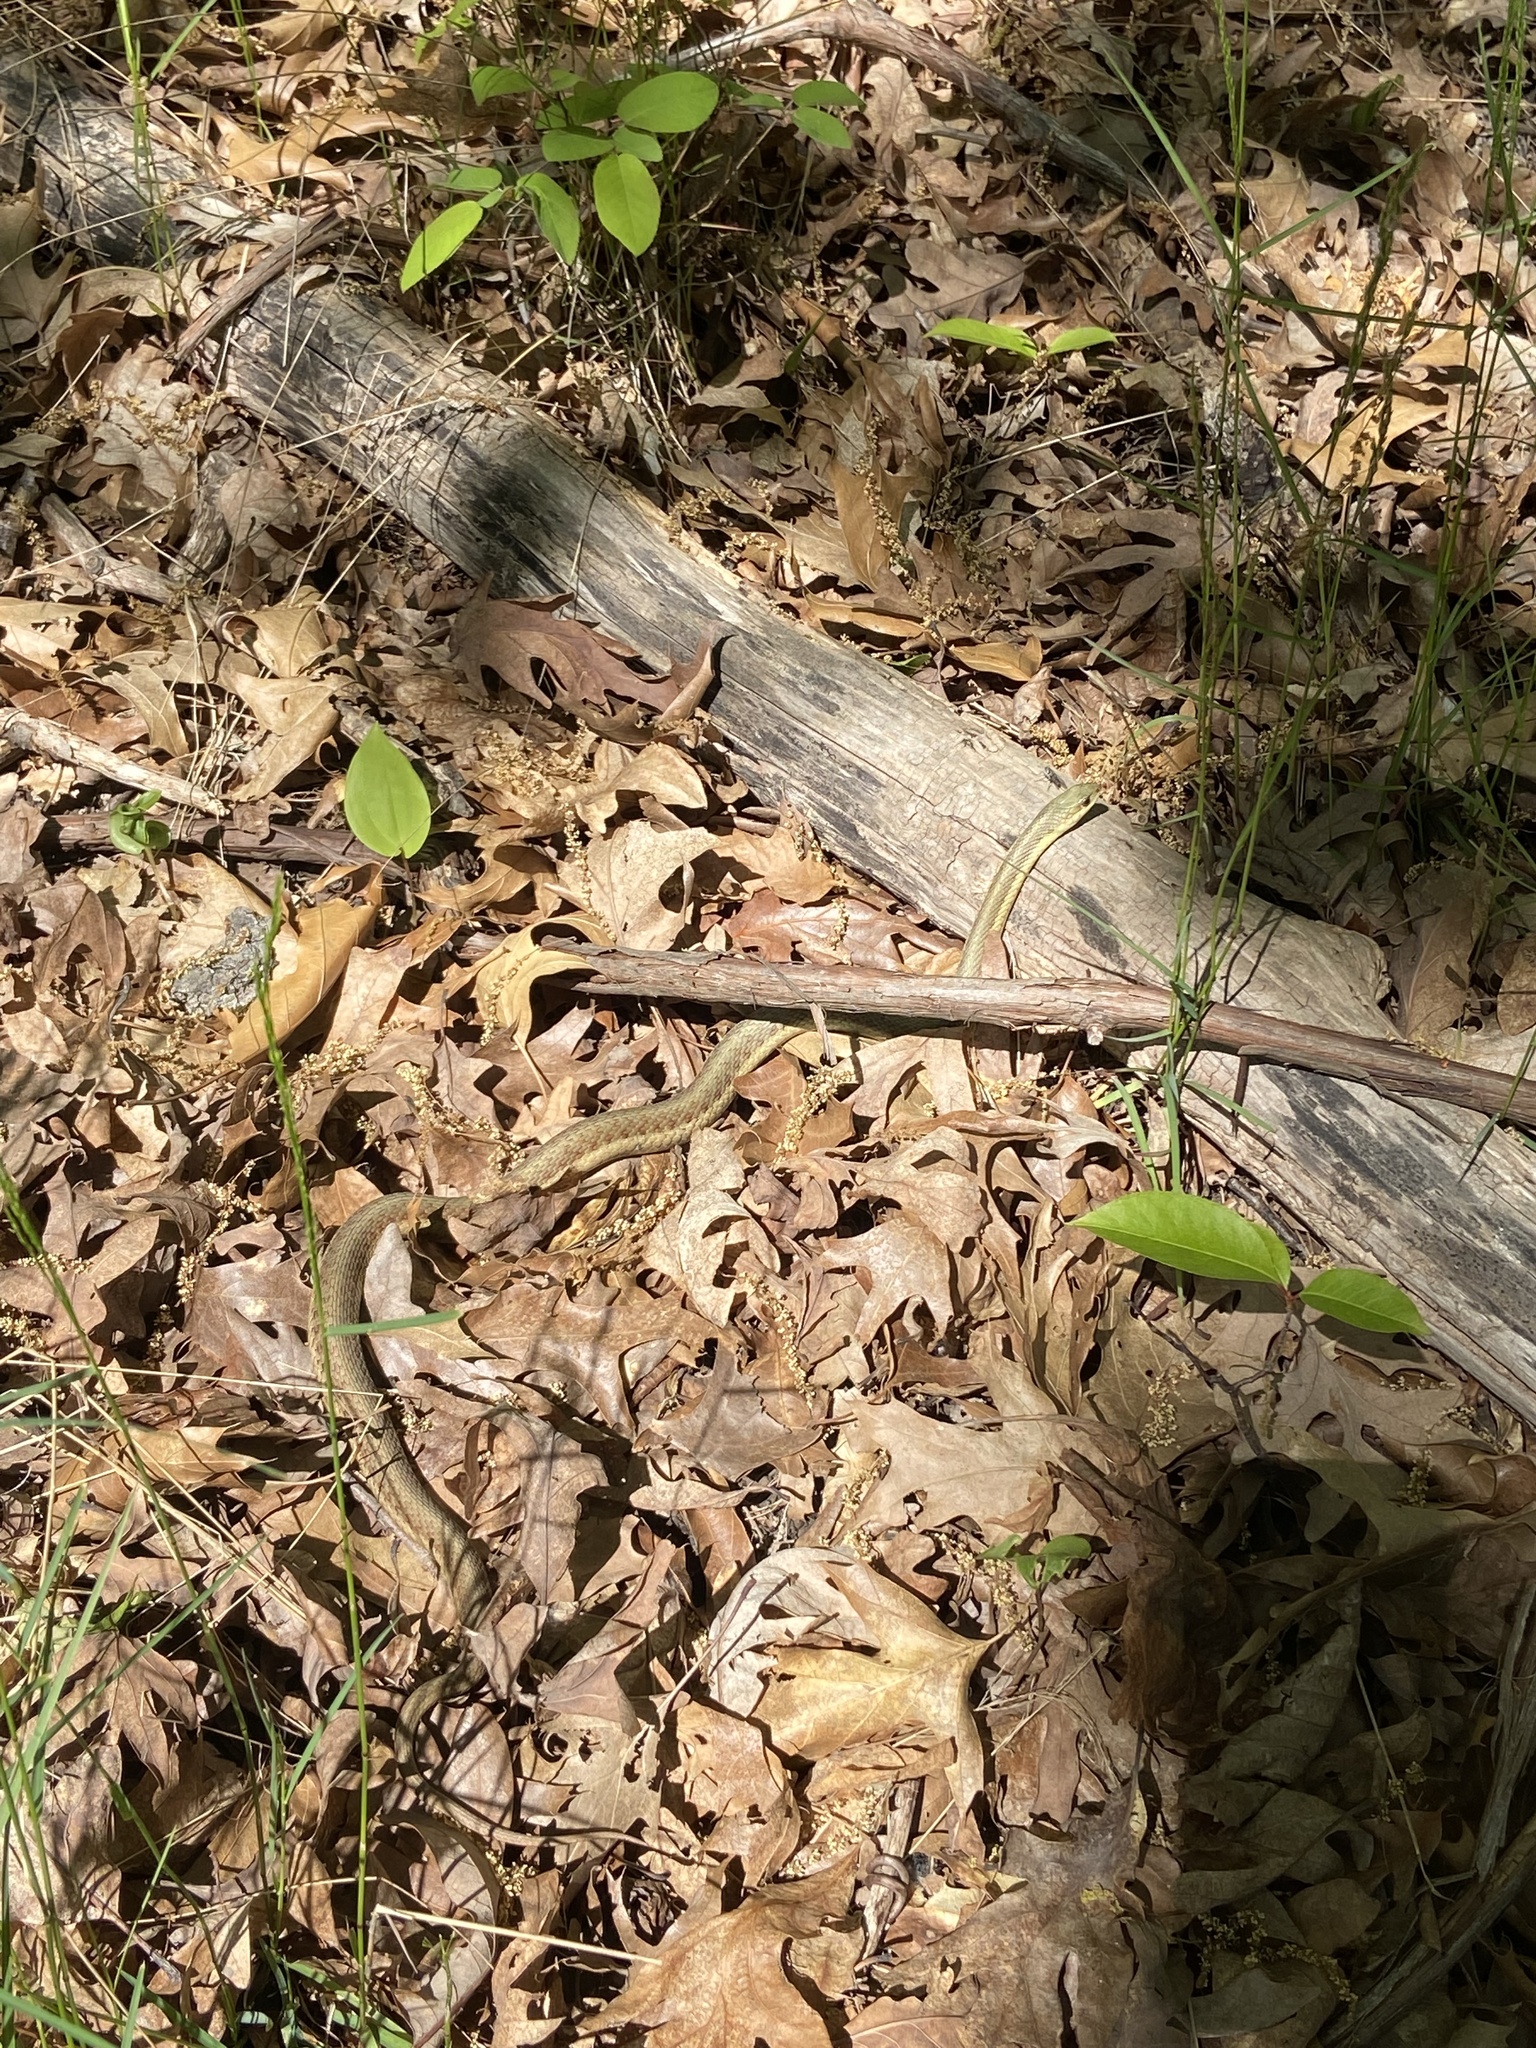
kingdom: Animalia
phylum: Chordata
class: Squamata
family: Colubridae
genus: Thamnophis
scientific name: Thamnophis sirtalis
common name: Common garter snake
